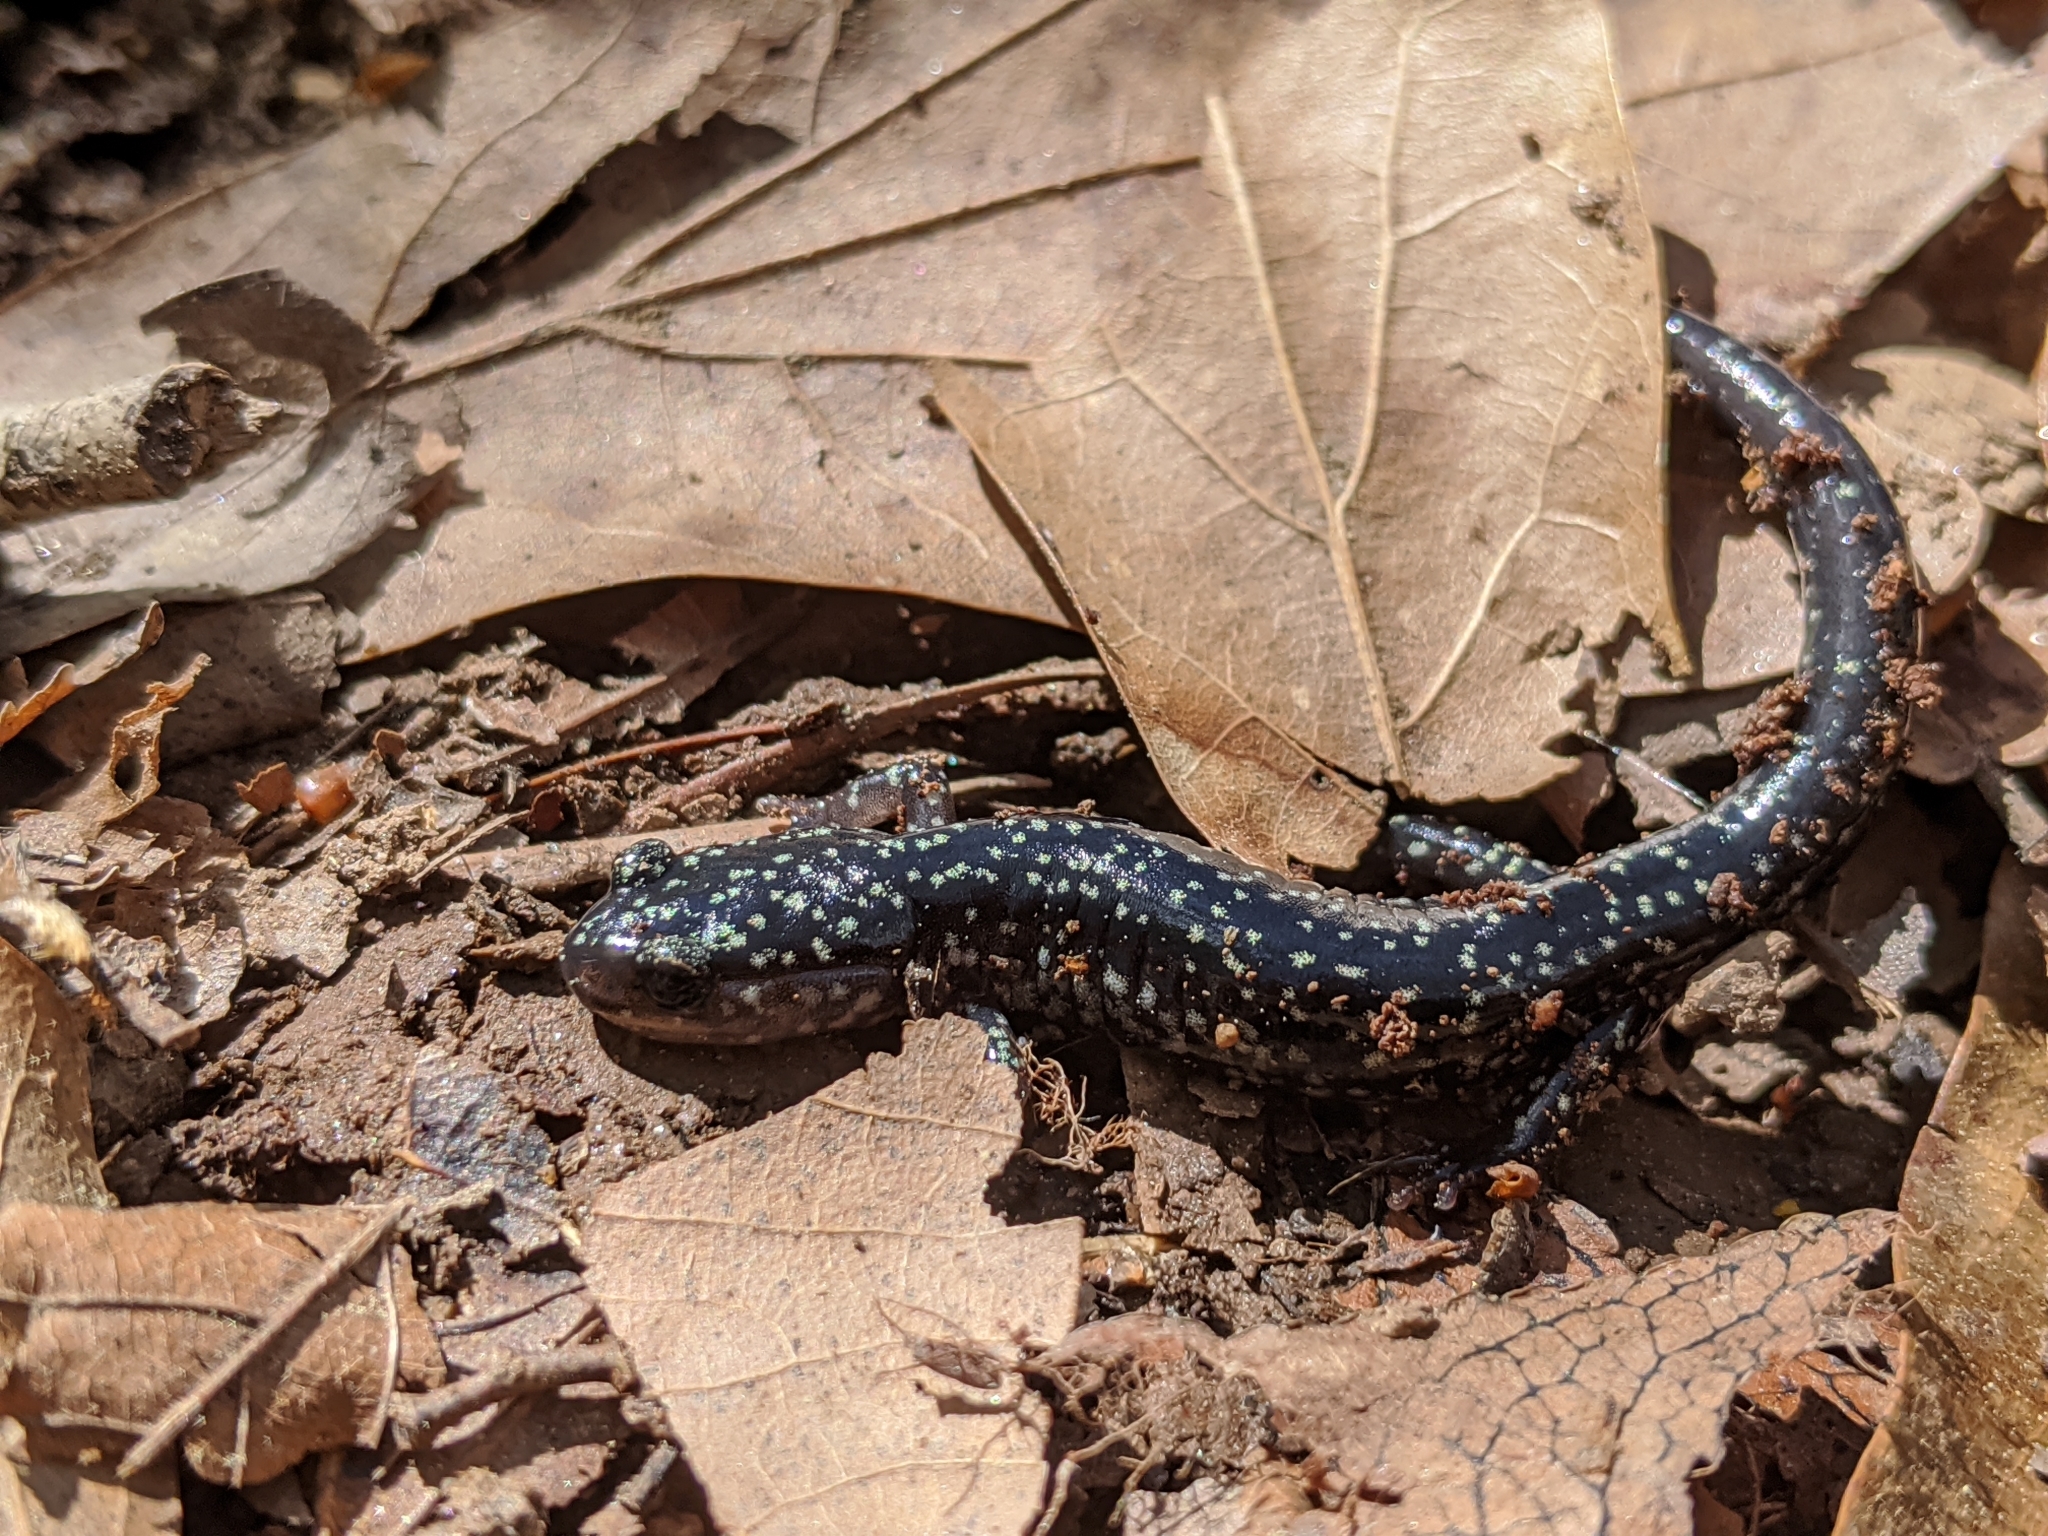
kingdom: Animalia
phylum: Chordata
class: Amphibia
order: Caudata
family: Plethodontidae
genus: Plethodon
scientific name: Plethodon glutinosus
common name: Northern slimy salamander
